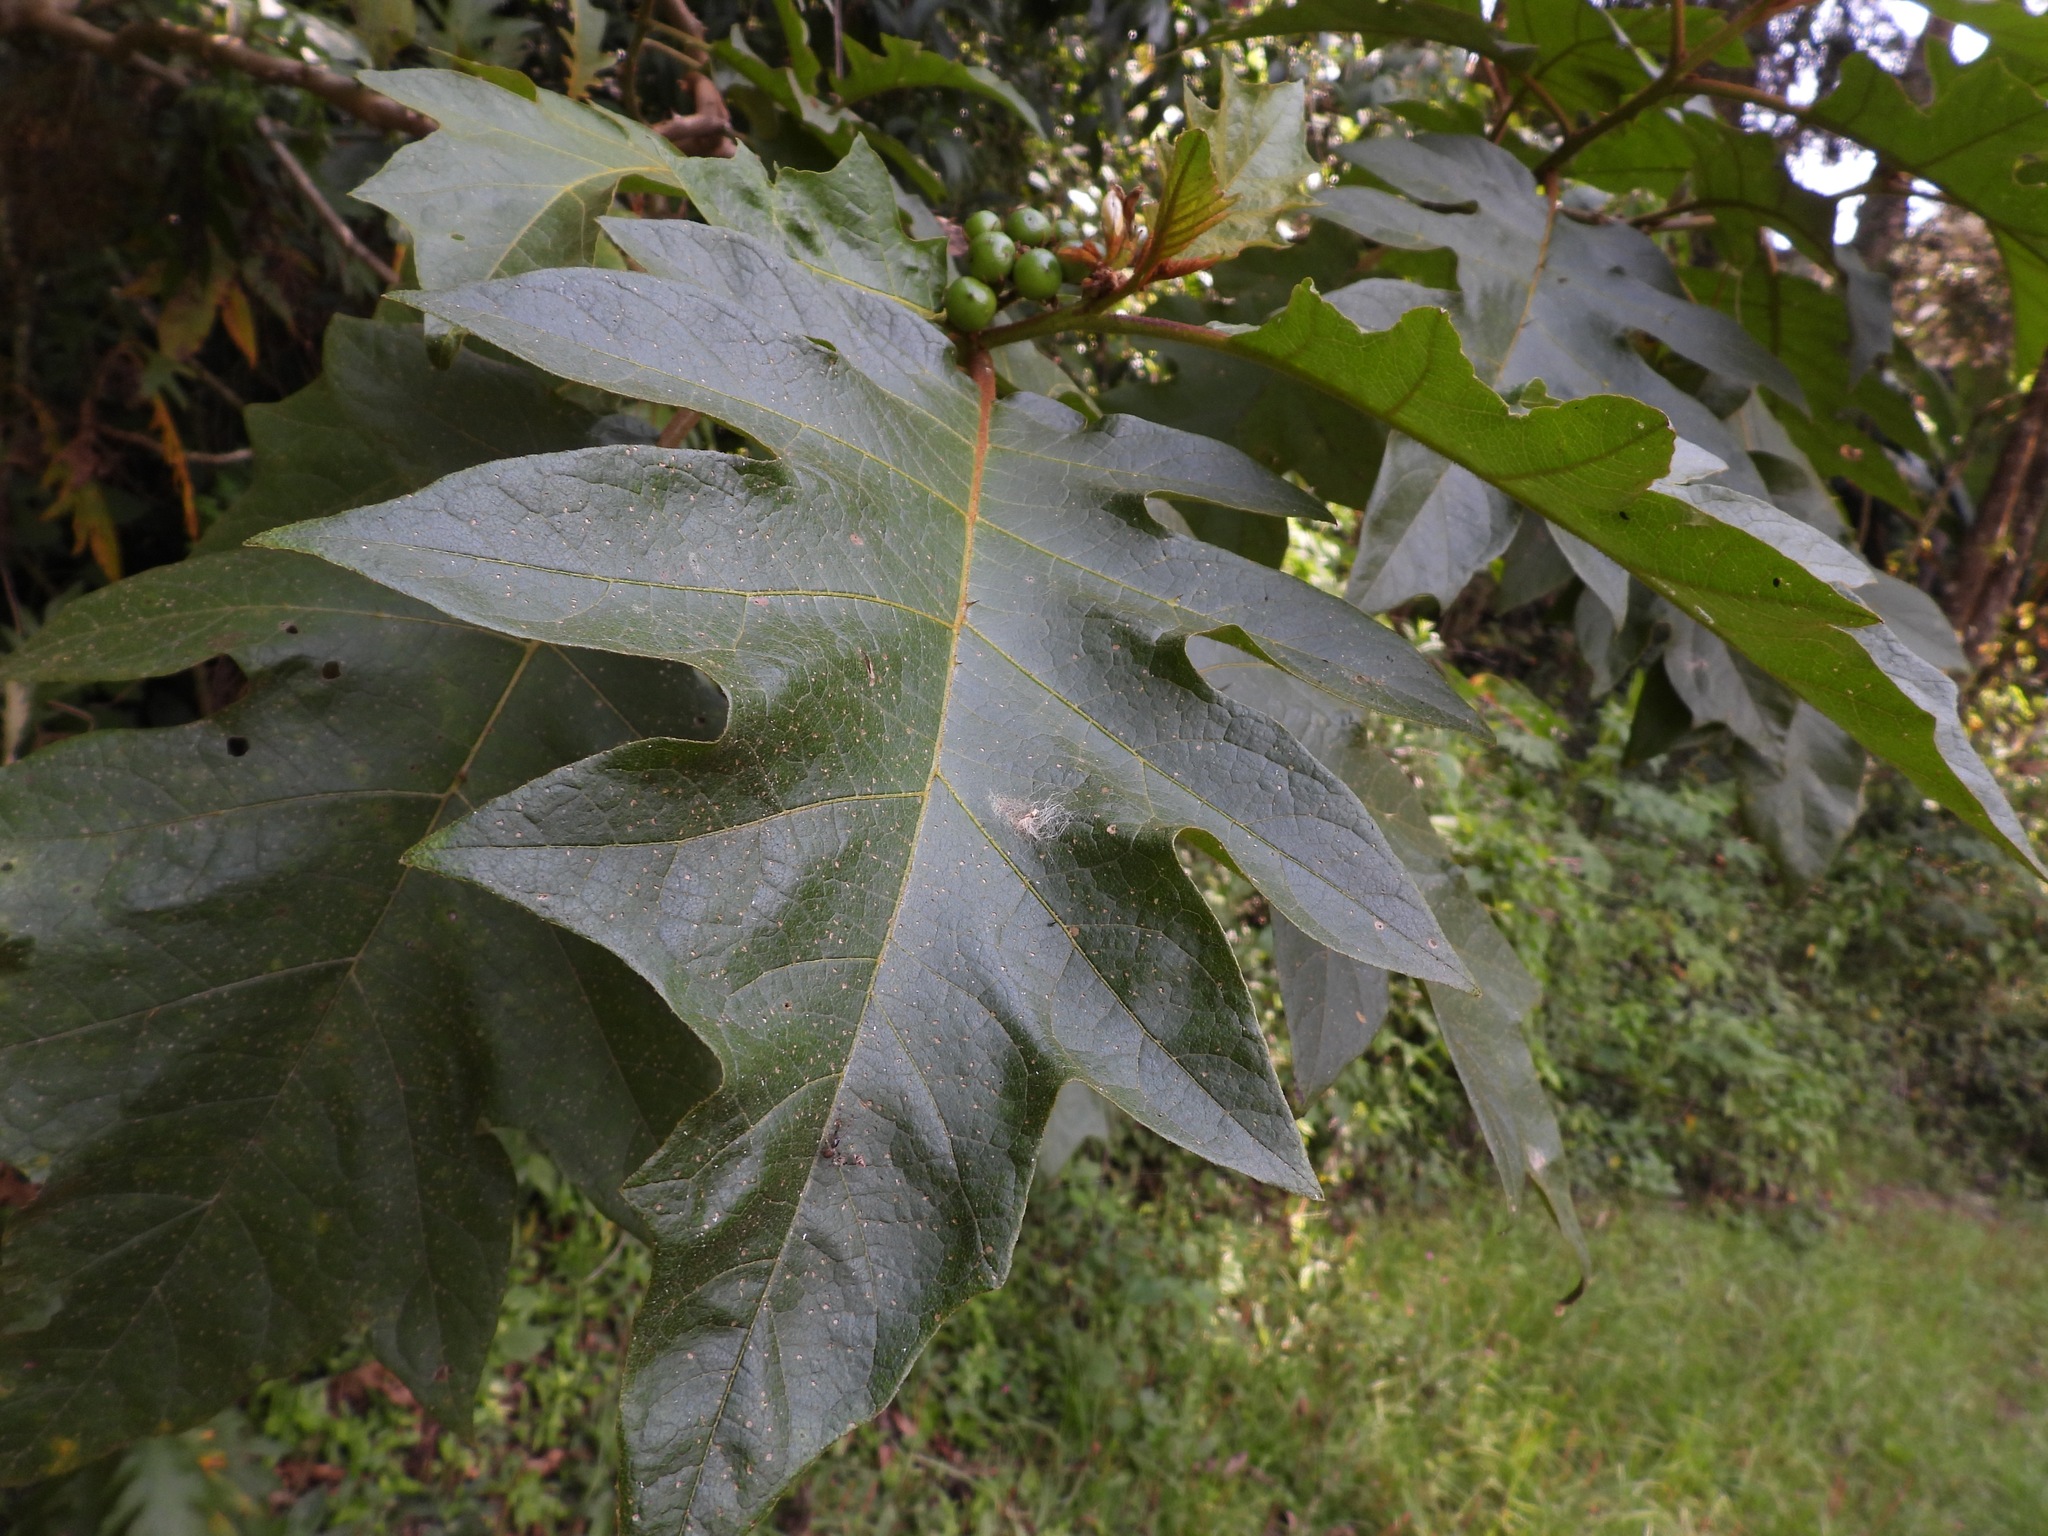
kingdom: Plantae
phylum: Tracheophyta
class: Magnoliopsida
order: Solanales
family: Solanaceae
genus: Solanum
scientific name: Solanum chrysotrichum
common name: Nightshade
